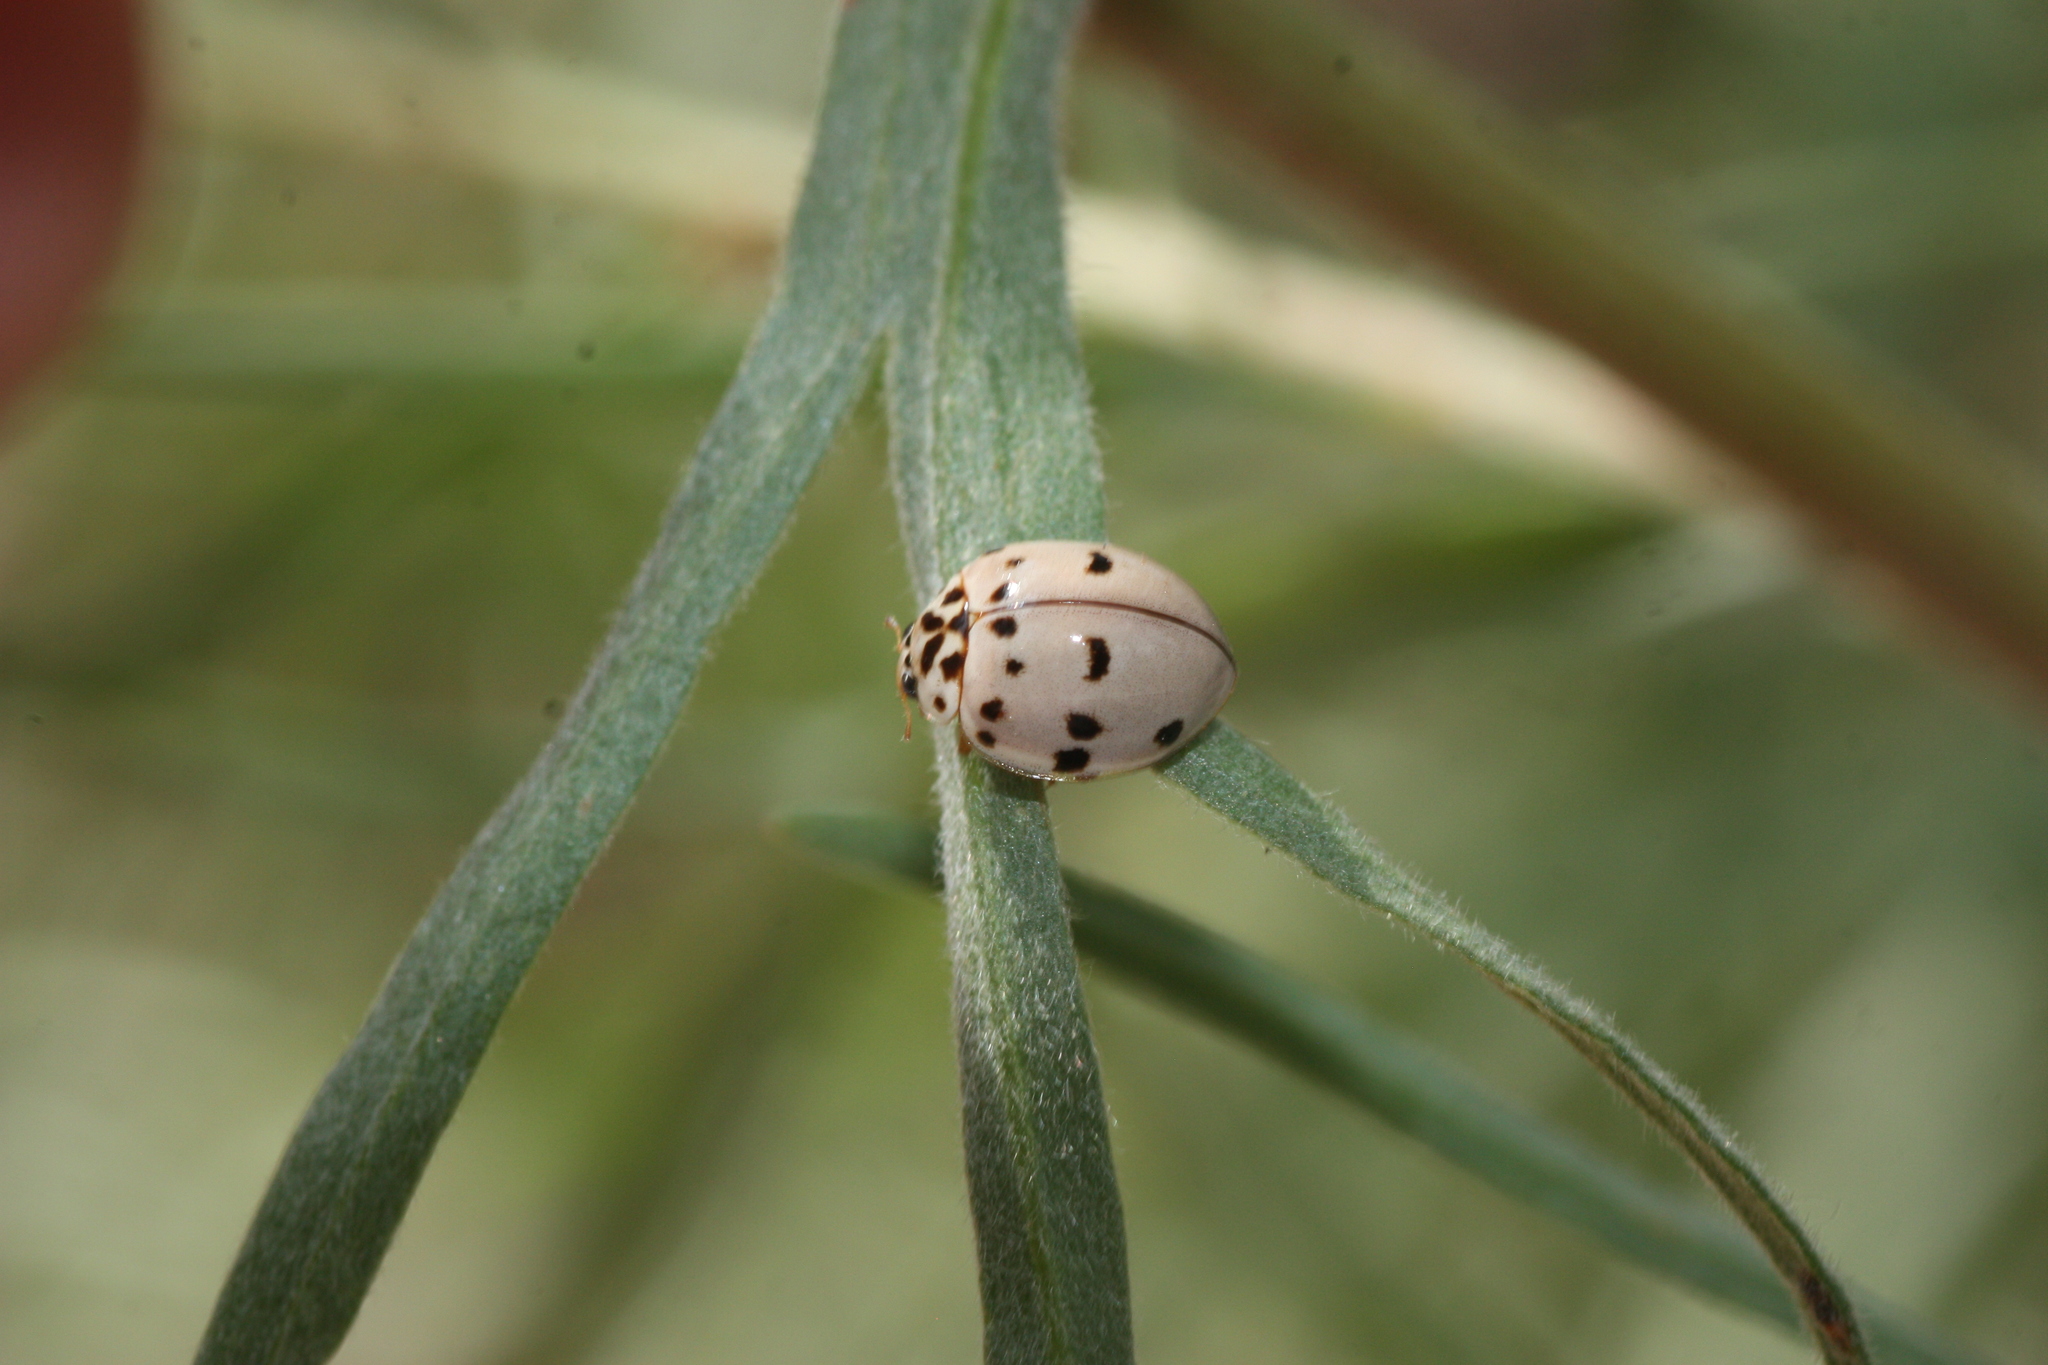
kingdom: Animalia
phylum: Arthropoda
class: Insecta
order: Coleoptera
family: Coccinellidae
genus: Olla
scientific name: Olla v-nigrum
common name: Ashy gray lady beetle
